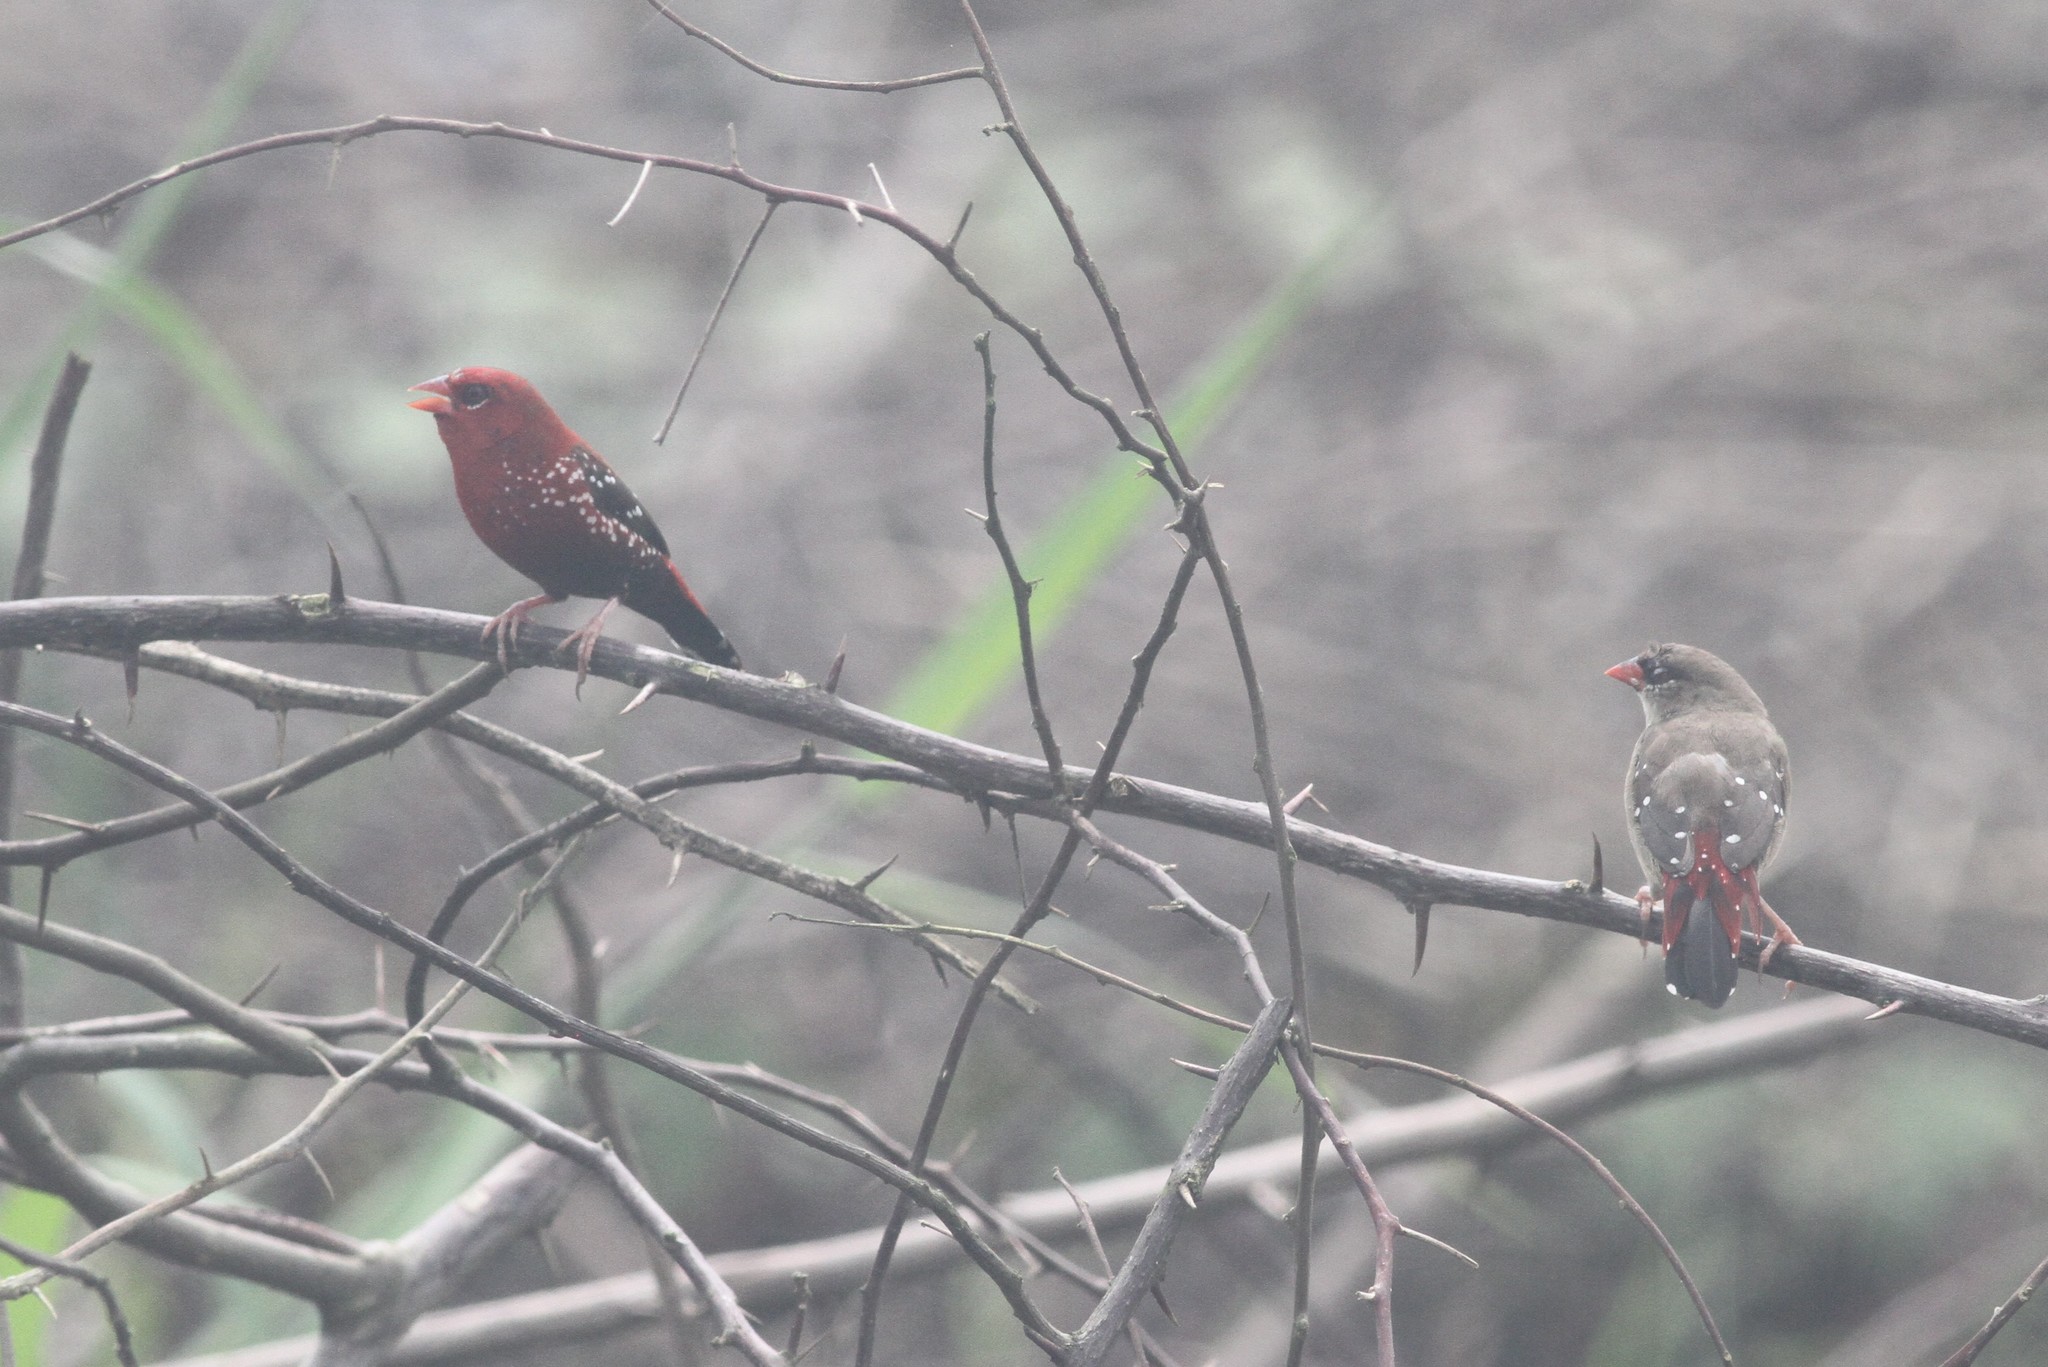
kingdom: Animalia
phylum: Chordata
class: Aves
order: Passeriformes
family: Estrildidae
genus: Amandava
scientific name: Amandava amandava
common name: Red avadavat
